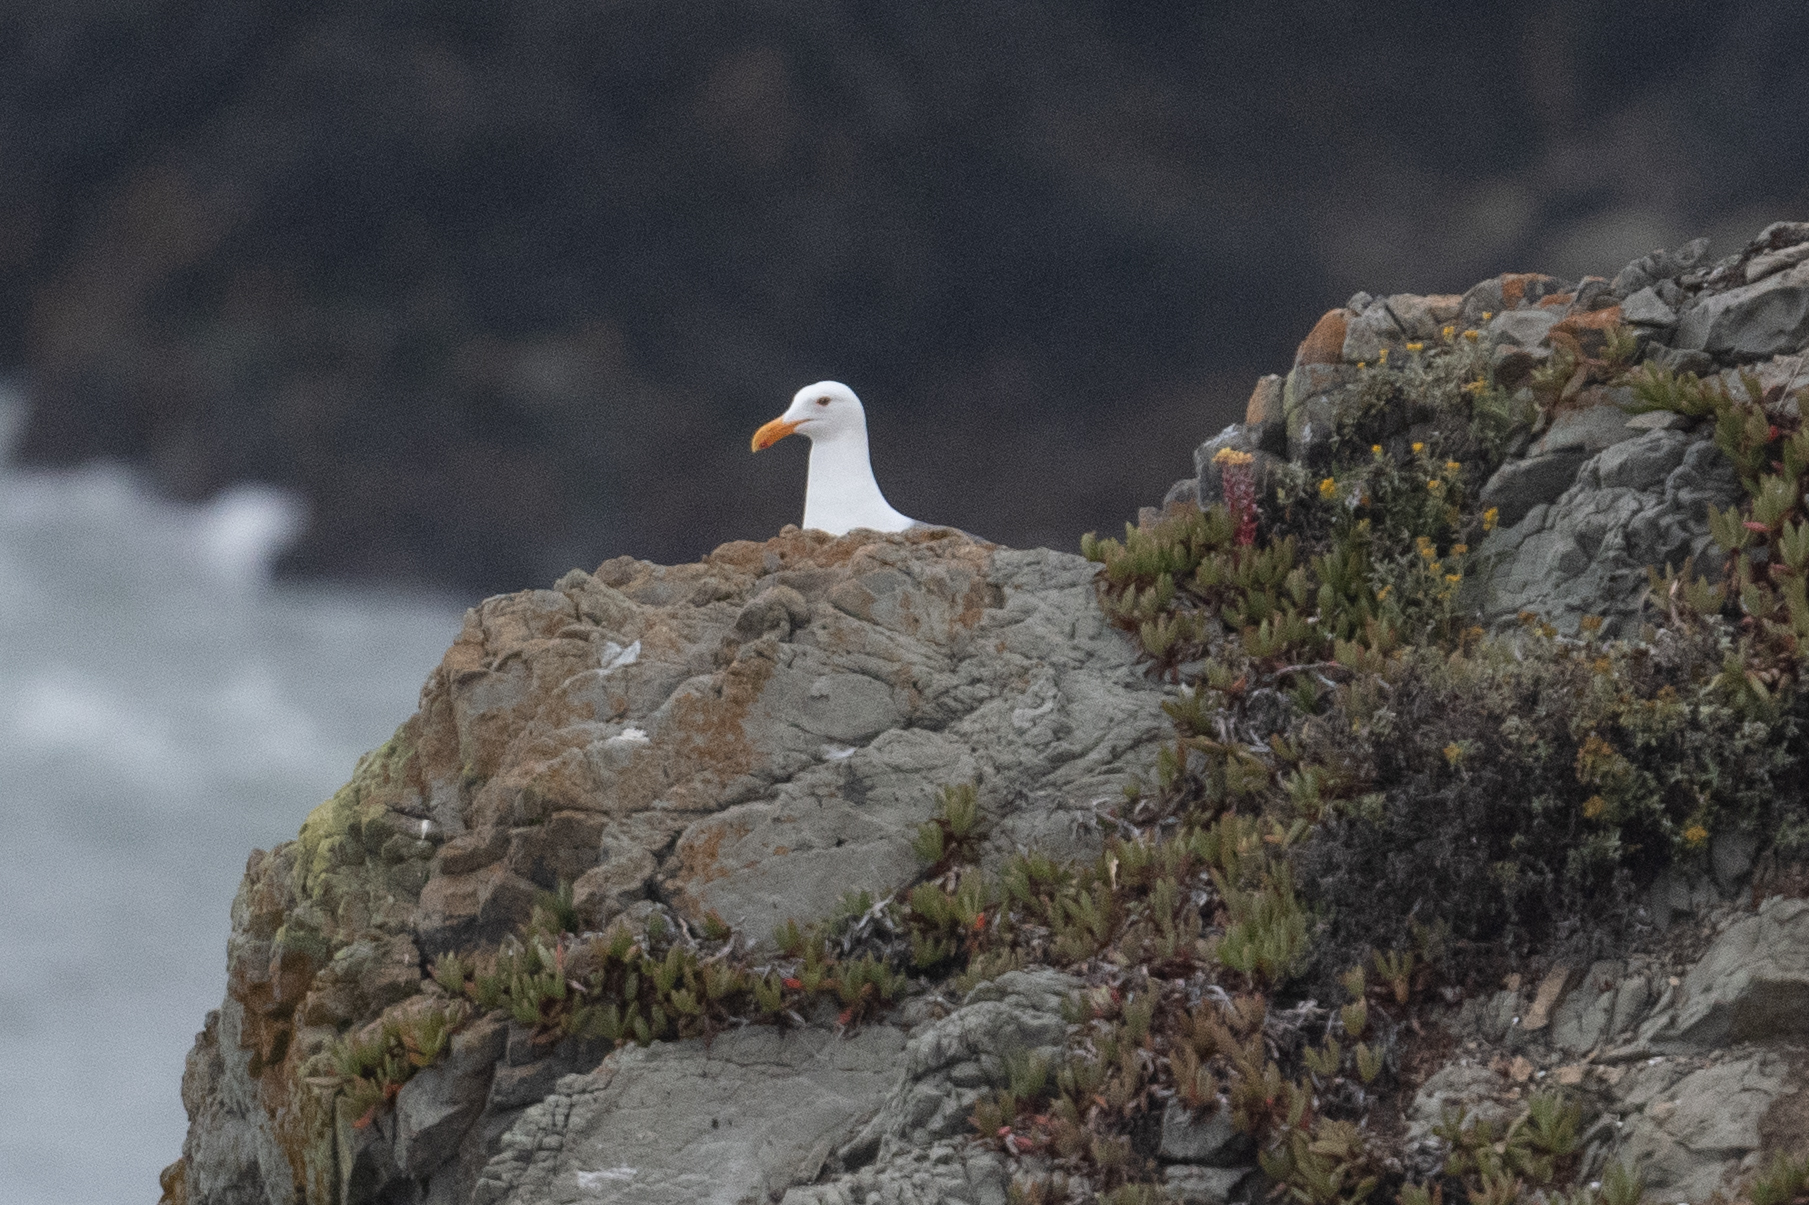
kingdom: Animalia
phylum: Chordata
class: Aves
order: Charadriiformes
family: Laridae
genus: Larus
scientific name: Larus occidentalis
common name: Western gull
